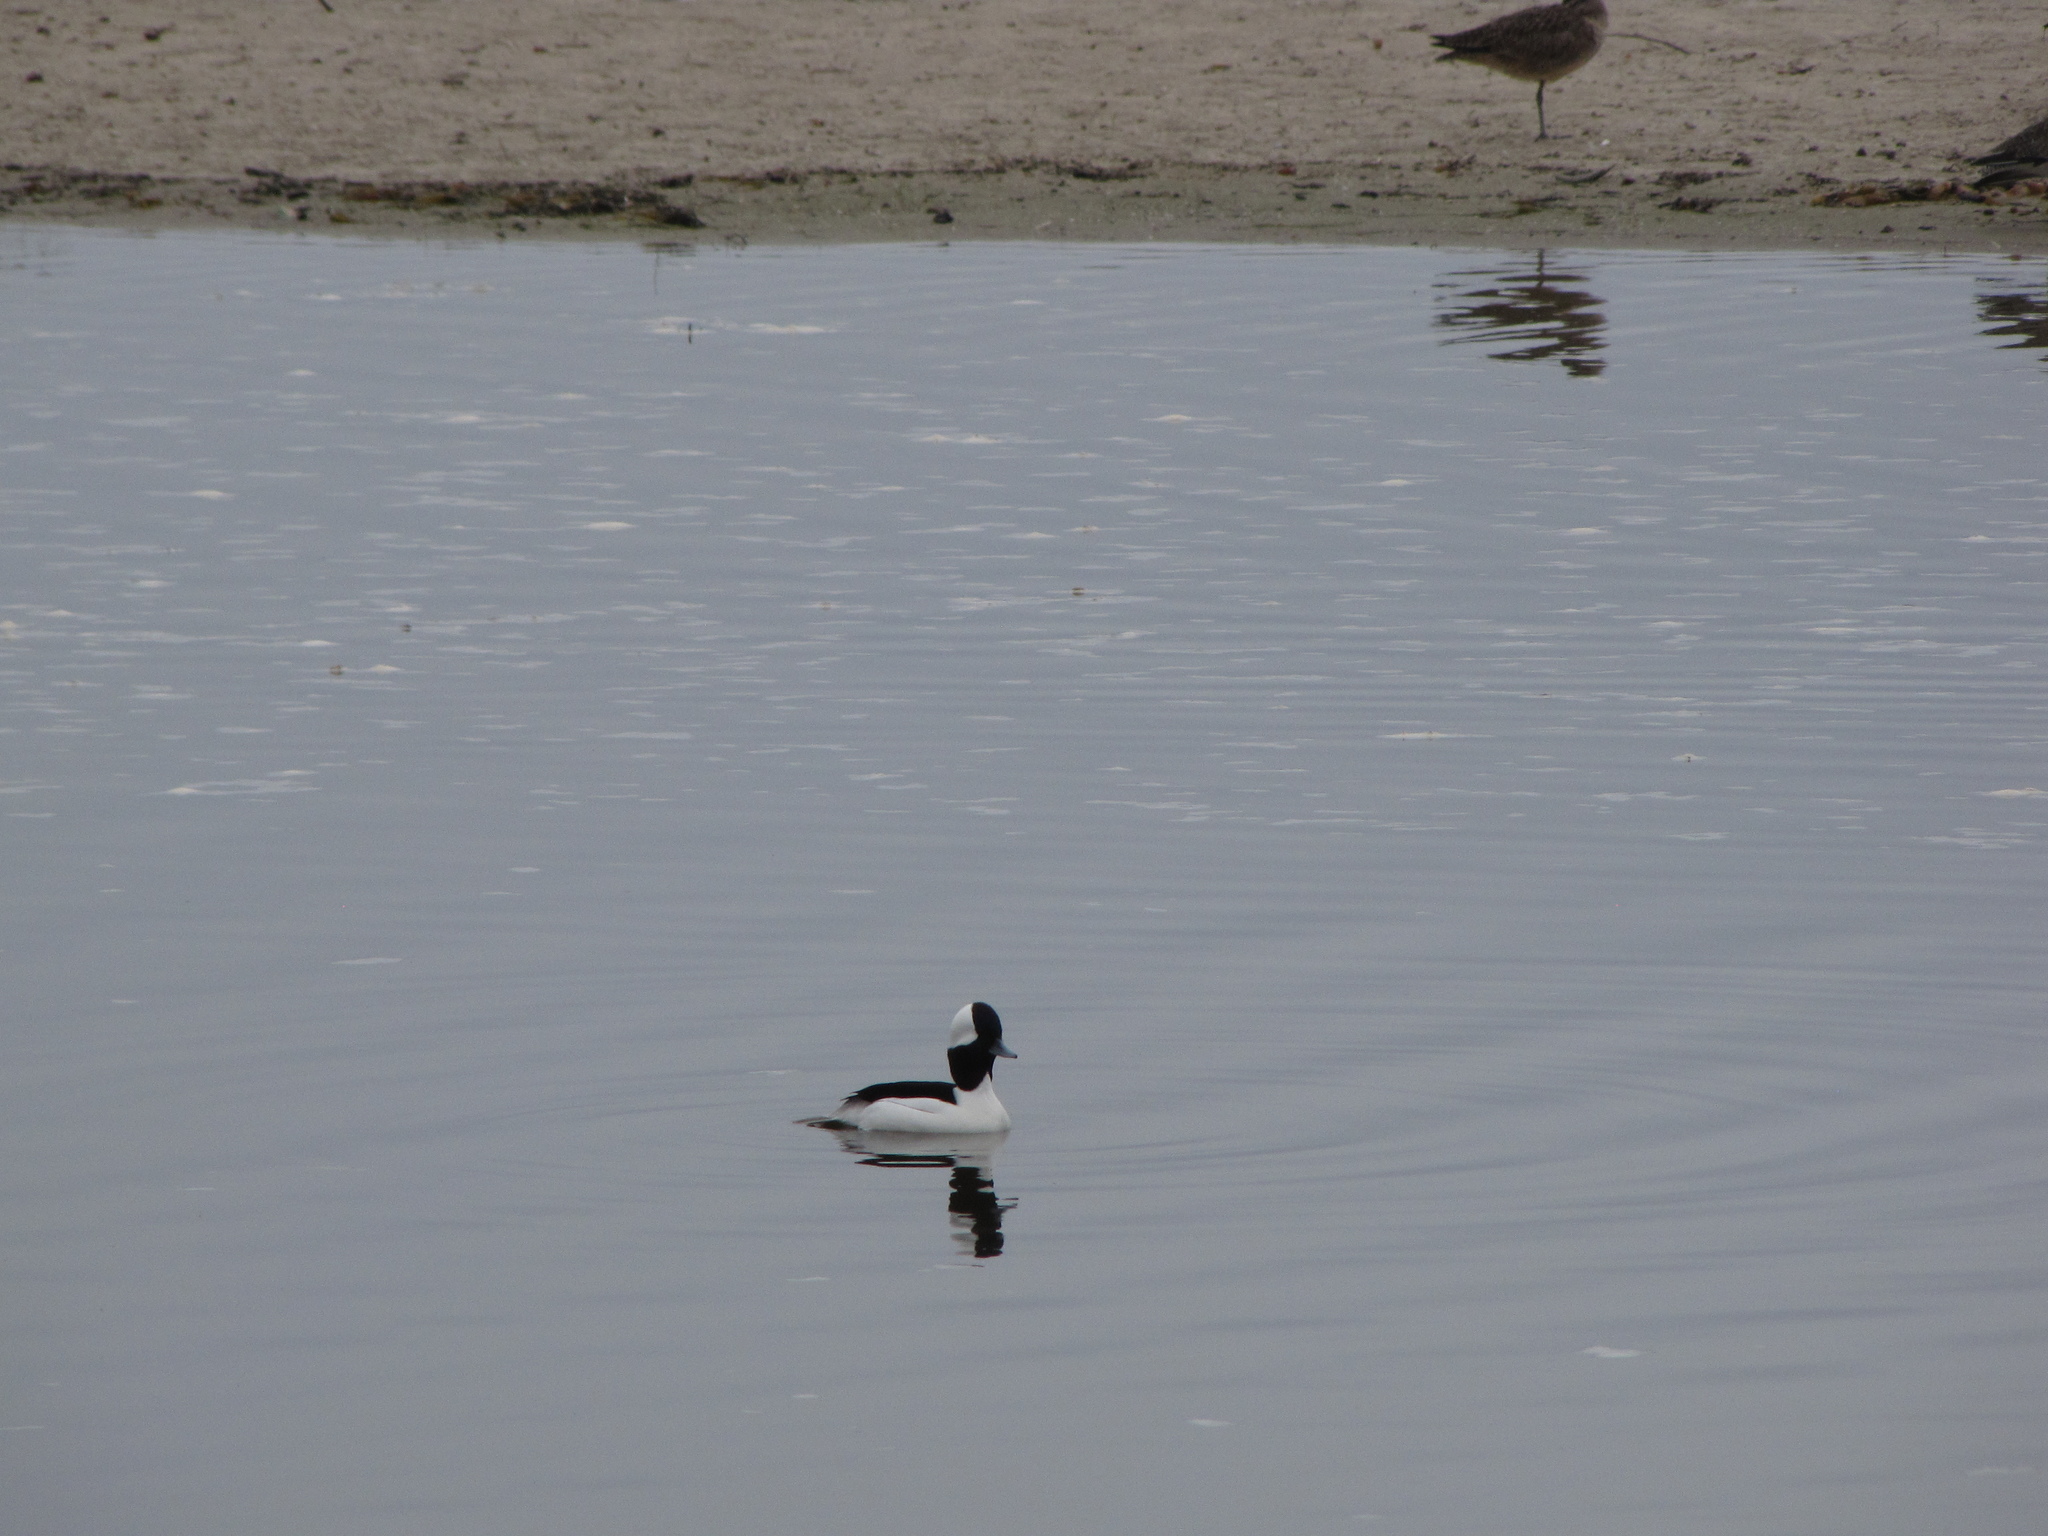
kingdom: Animalia
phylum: Chordata
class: Aves
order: Anseriformes
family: Anatidae
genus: Bucephala
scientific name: Bucephala albeola
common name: Bufflehead
